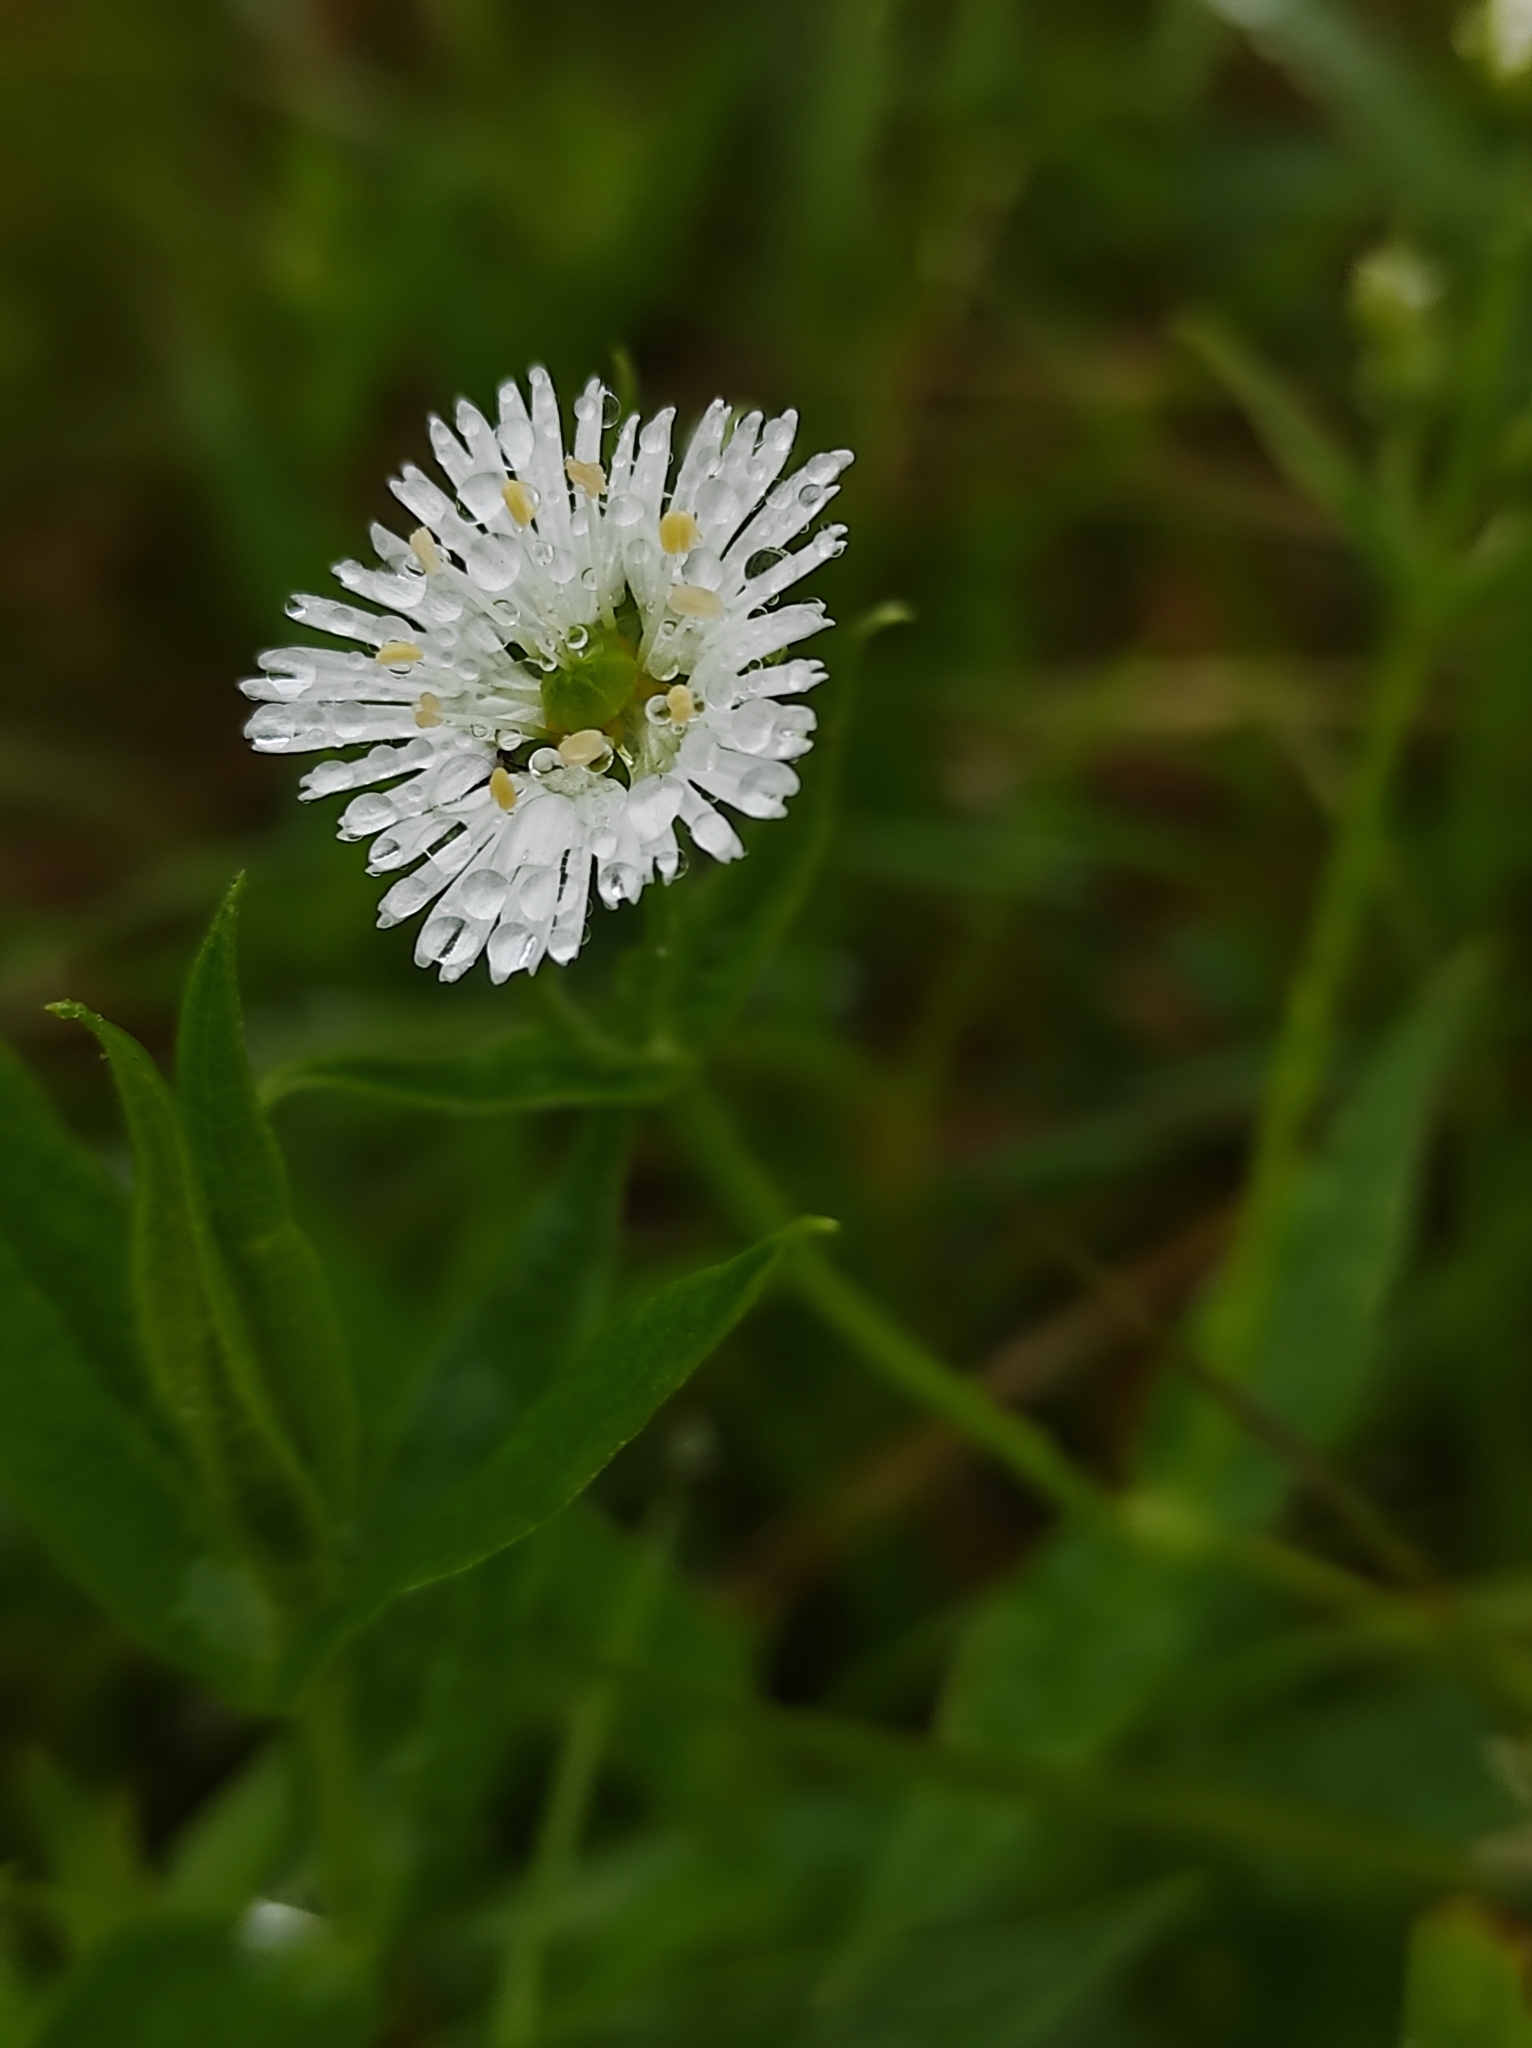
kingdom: Plantae
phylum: Tracheophyta
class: Magnoliopsida
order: Caryophyllales
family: Caryophyllaceae
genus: Stellaria
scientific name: Stellaria radians
